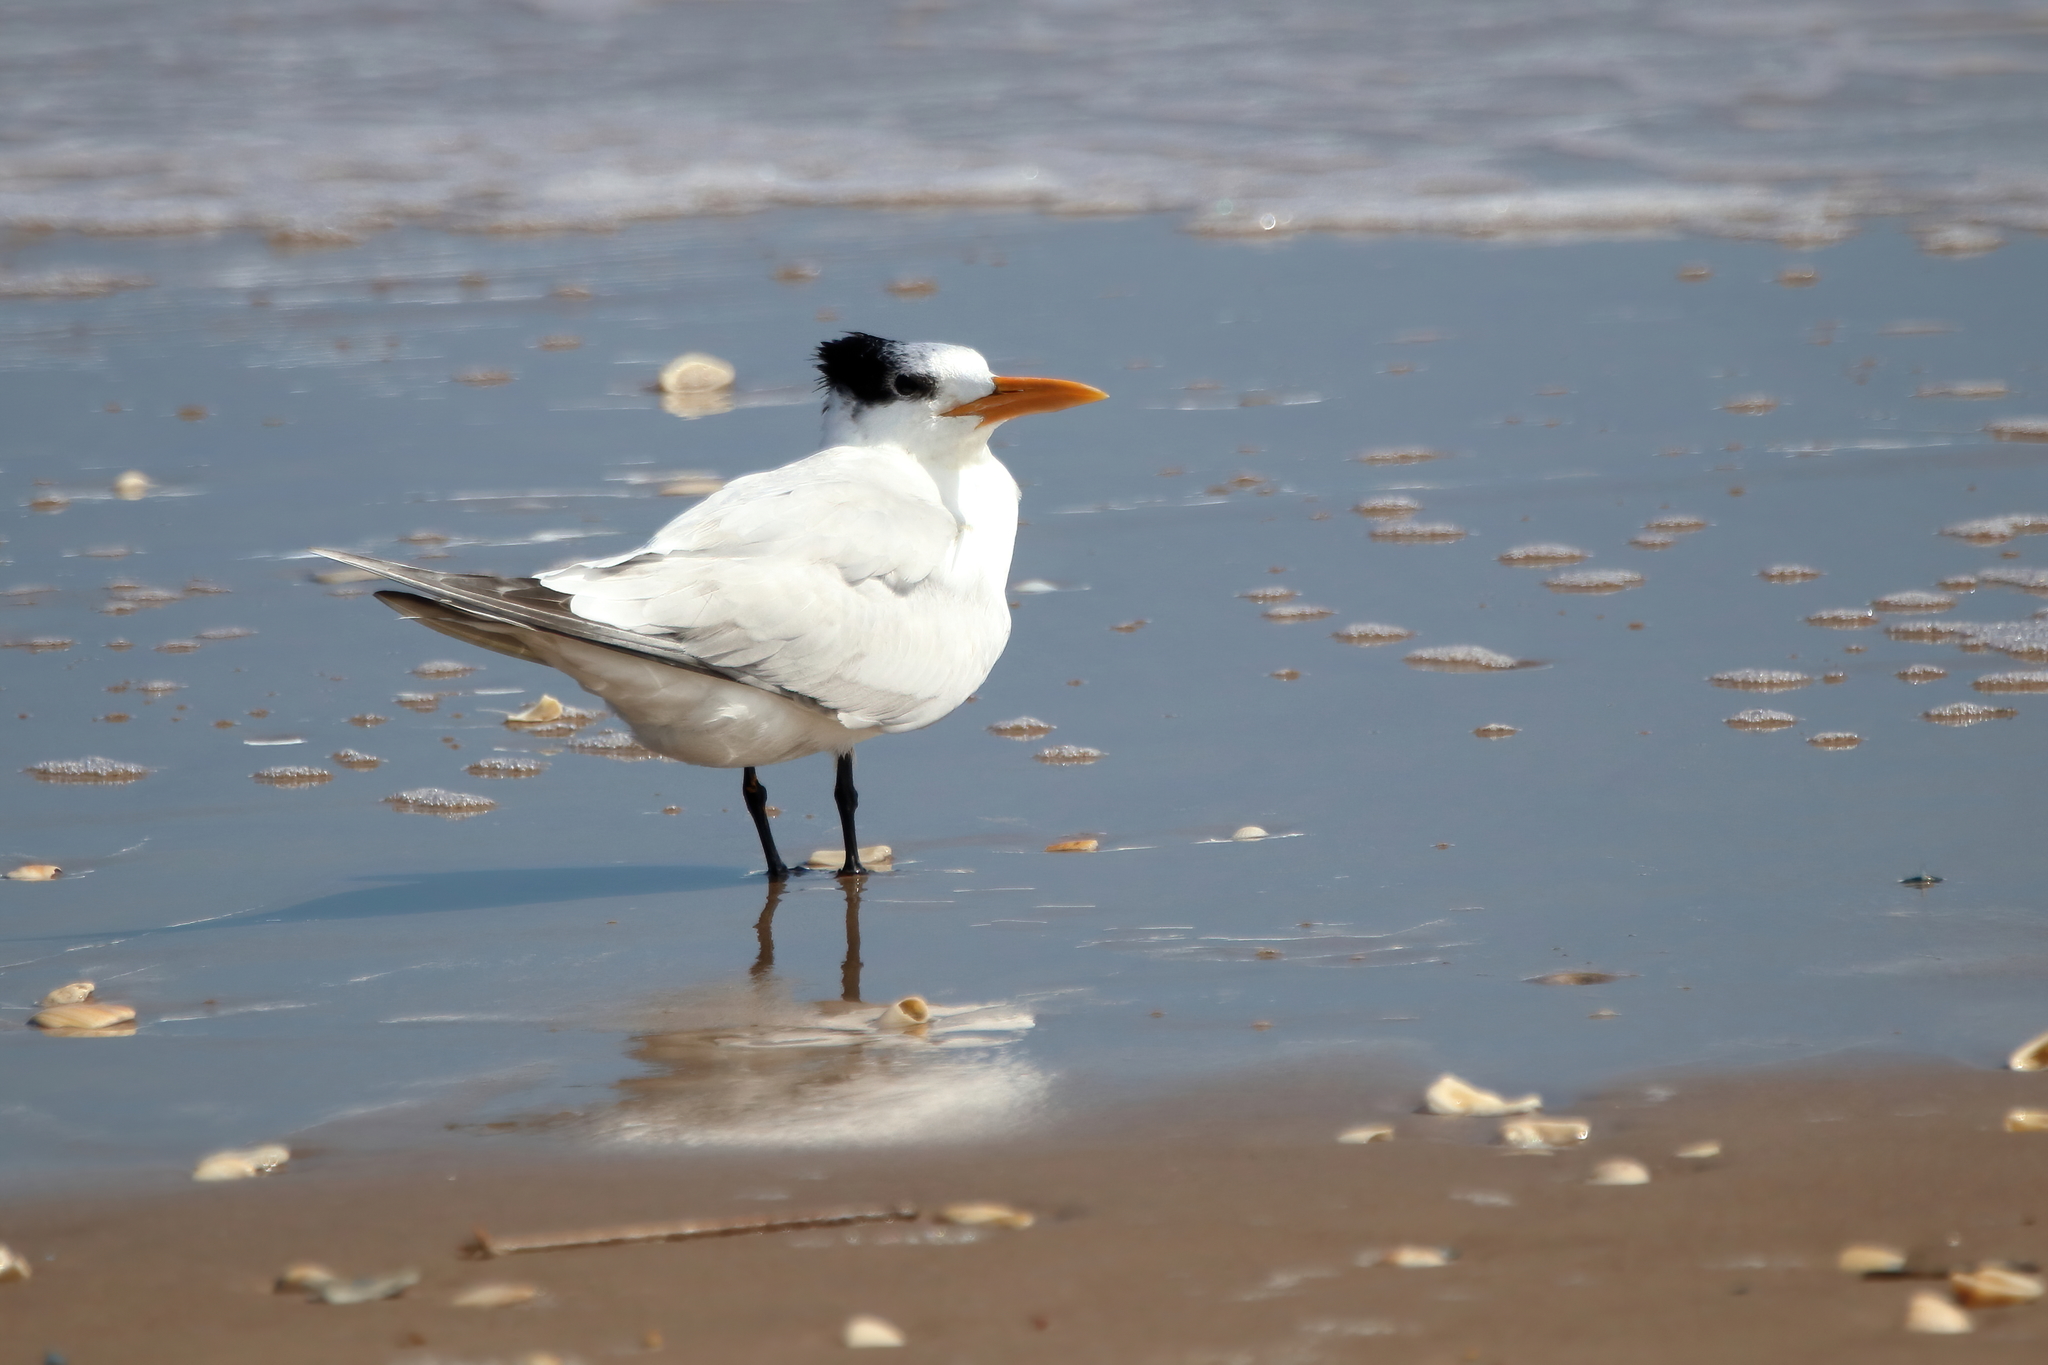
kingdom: Animalia
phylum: Chordata
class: Aves
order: Charadriiformes
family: Laridae
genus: Thalasseus
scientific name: Thalasseus maximus
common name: Royal tern
